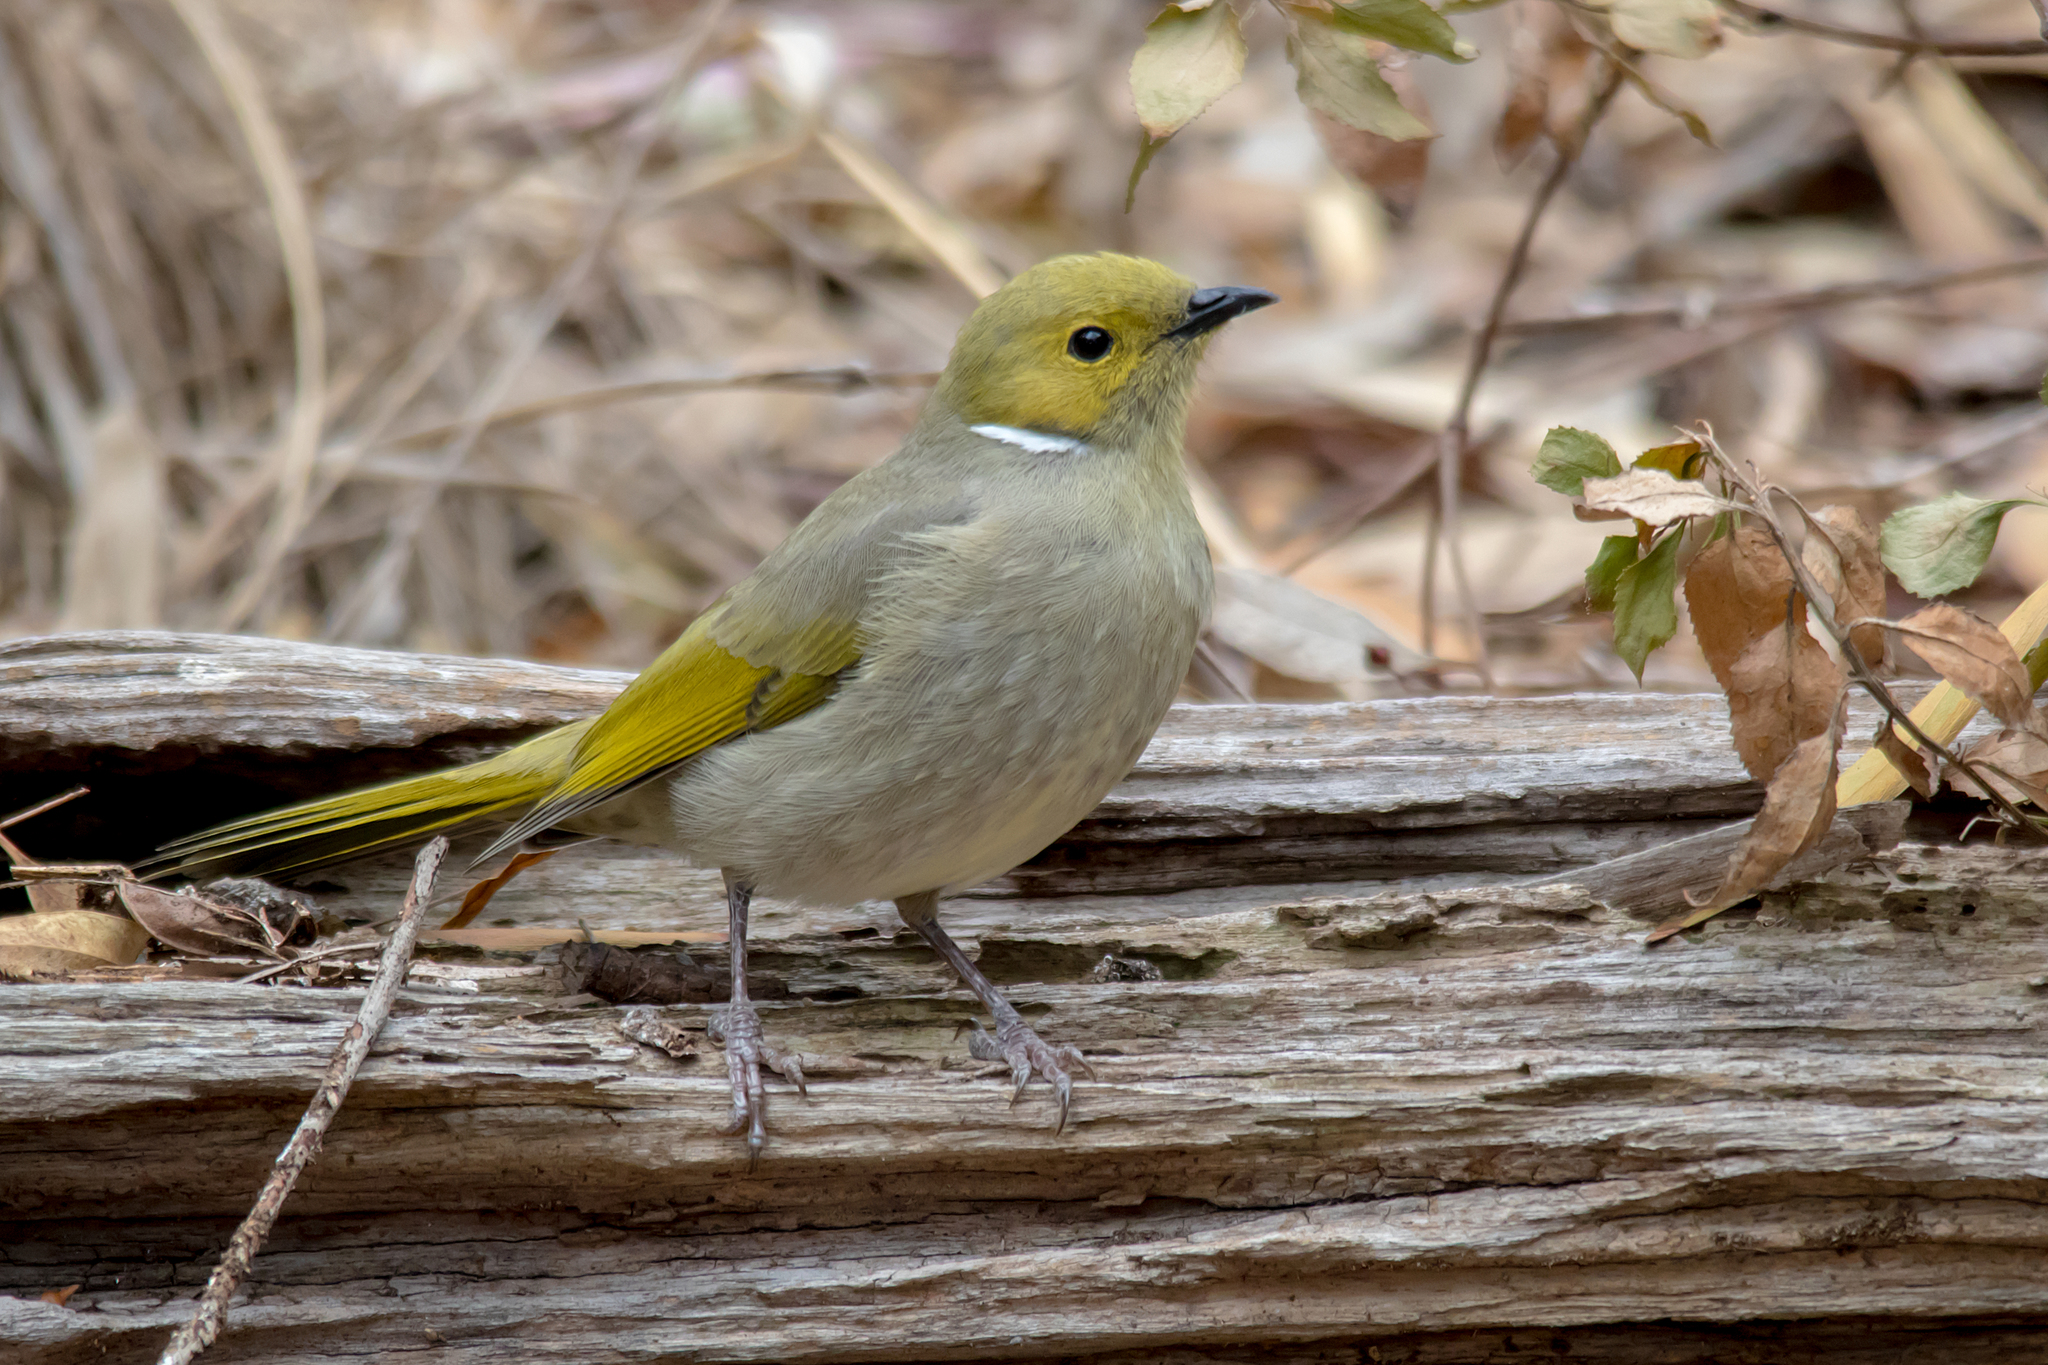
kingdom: Animalia
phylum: Chordata
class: Aves
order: Passeriformes
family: Meliphagidae
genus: Ptilotula
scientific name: Ptilotula penicillata
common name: White-plumed honeyeater
